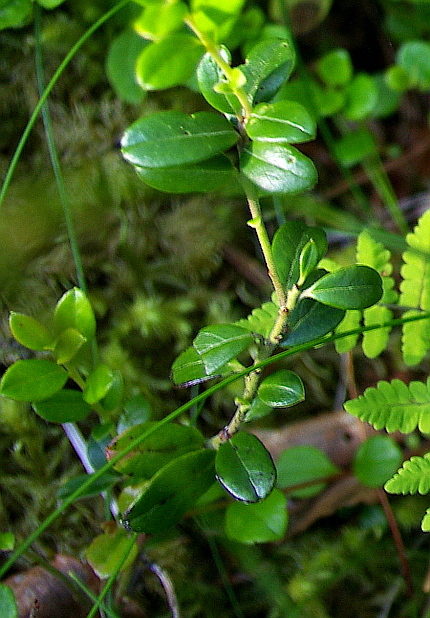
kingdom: Plantae
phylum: Tracheophyta
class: Magnoliopsida
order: Ericales
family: Ericaceae
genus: Vaccinium
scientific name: Vaccinium vitis-idaea
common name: Cowberry
